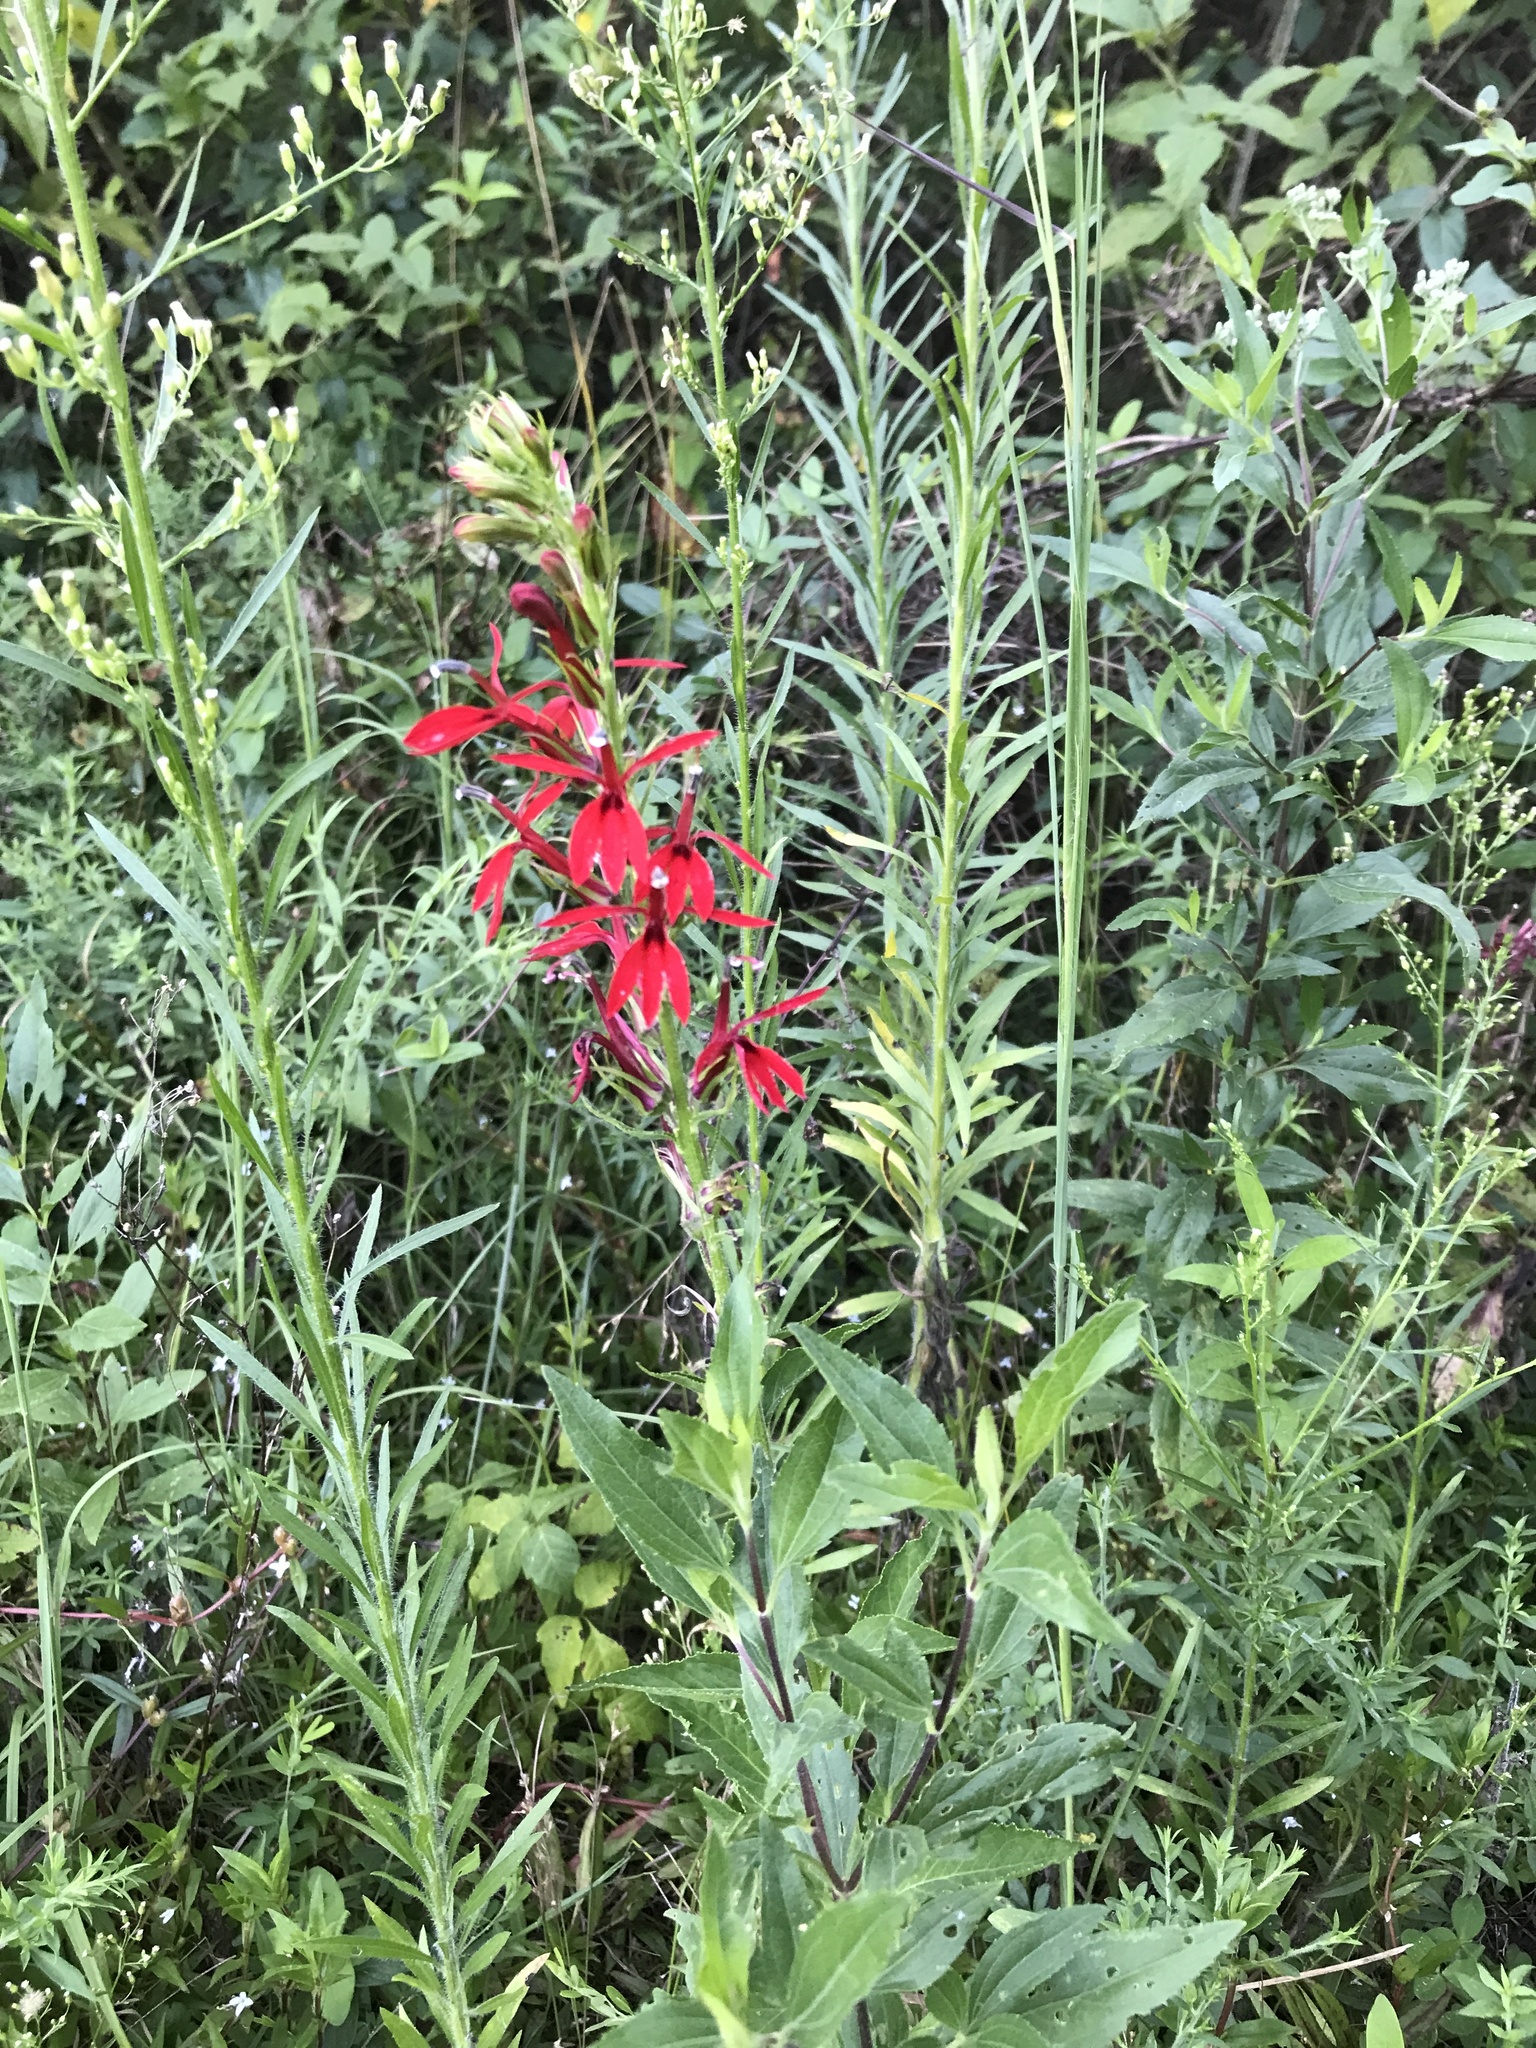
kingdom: Plantae
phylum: Tracheophyta
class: Magnoliopsida
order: Asterales
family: Campanulaceae
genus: Lobelia
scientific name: Lobelia cardinalis
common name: Cardinal flower
